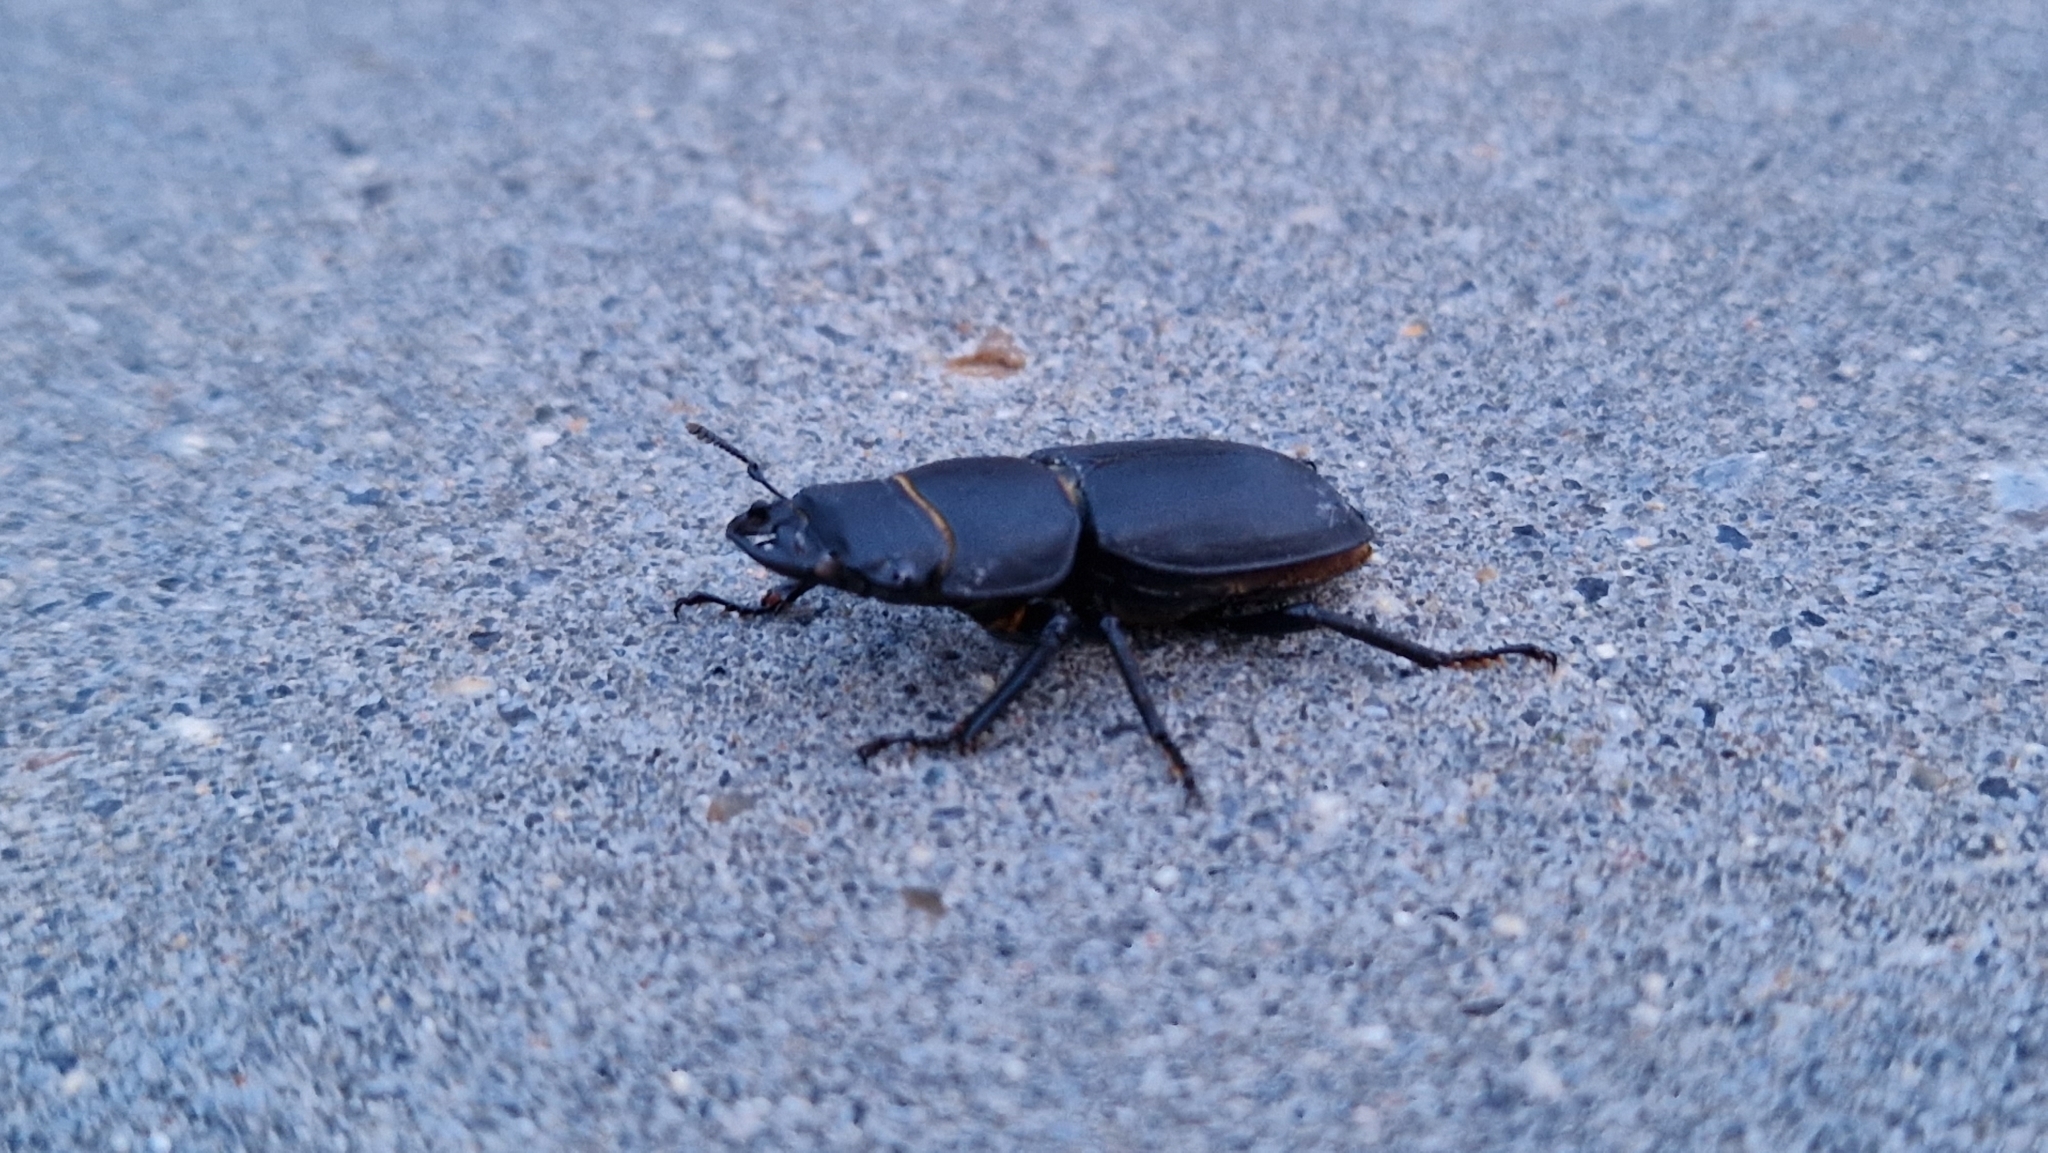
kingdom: Animalia
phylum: Arthropoda
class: Insecta
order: Coleoptera
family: Lucanidae
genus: Dorcus
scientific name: Dorcus parallelipipedus
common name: Lesser stag beetle
